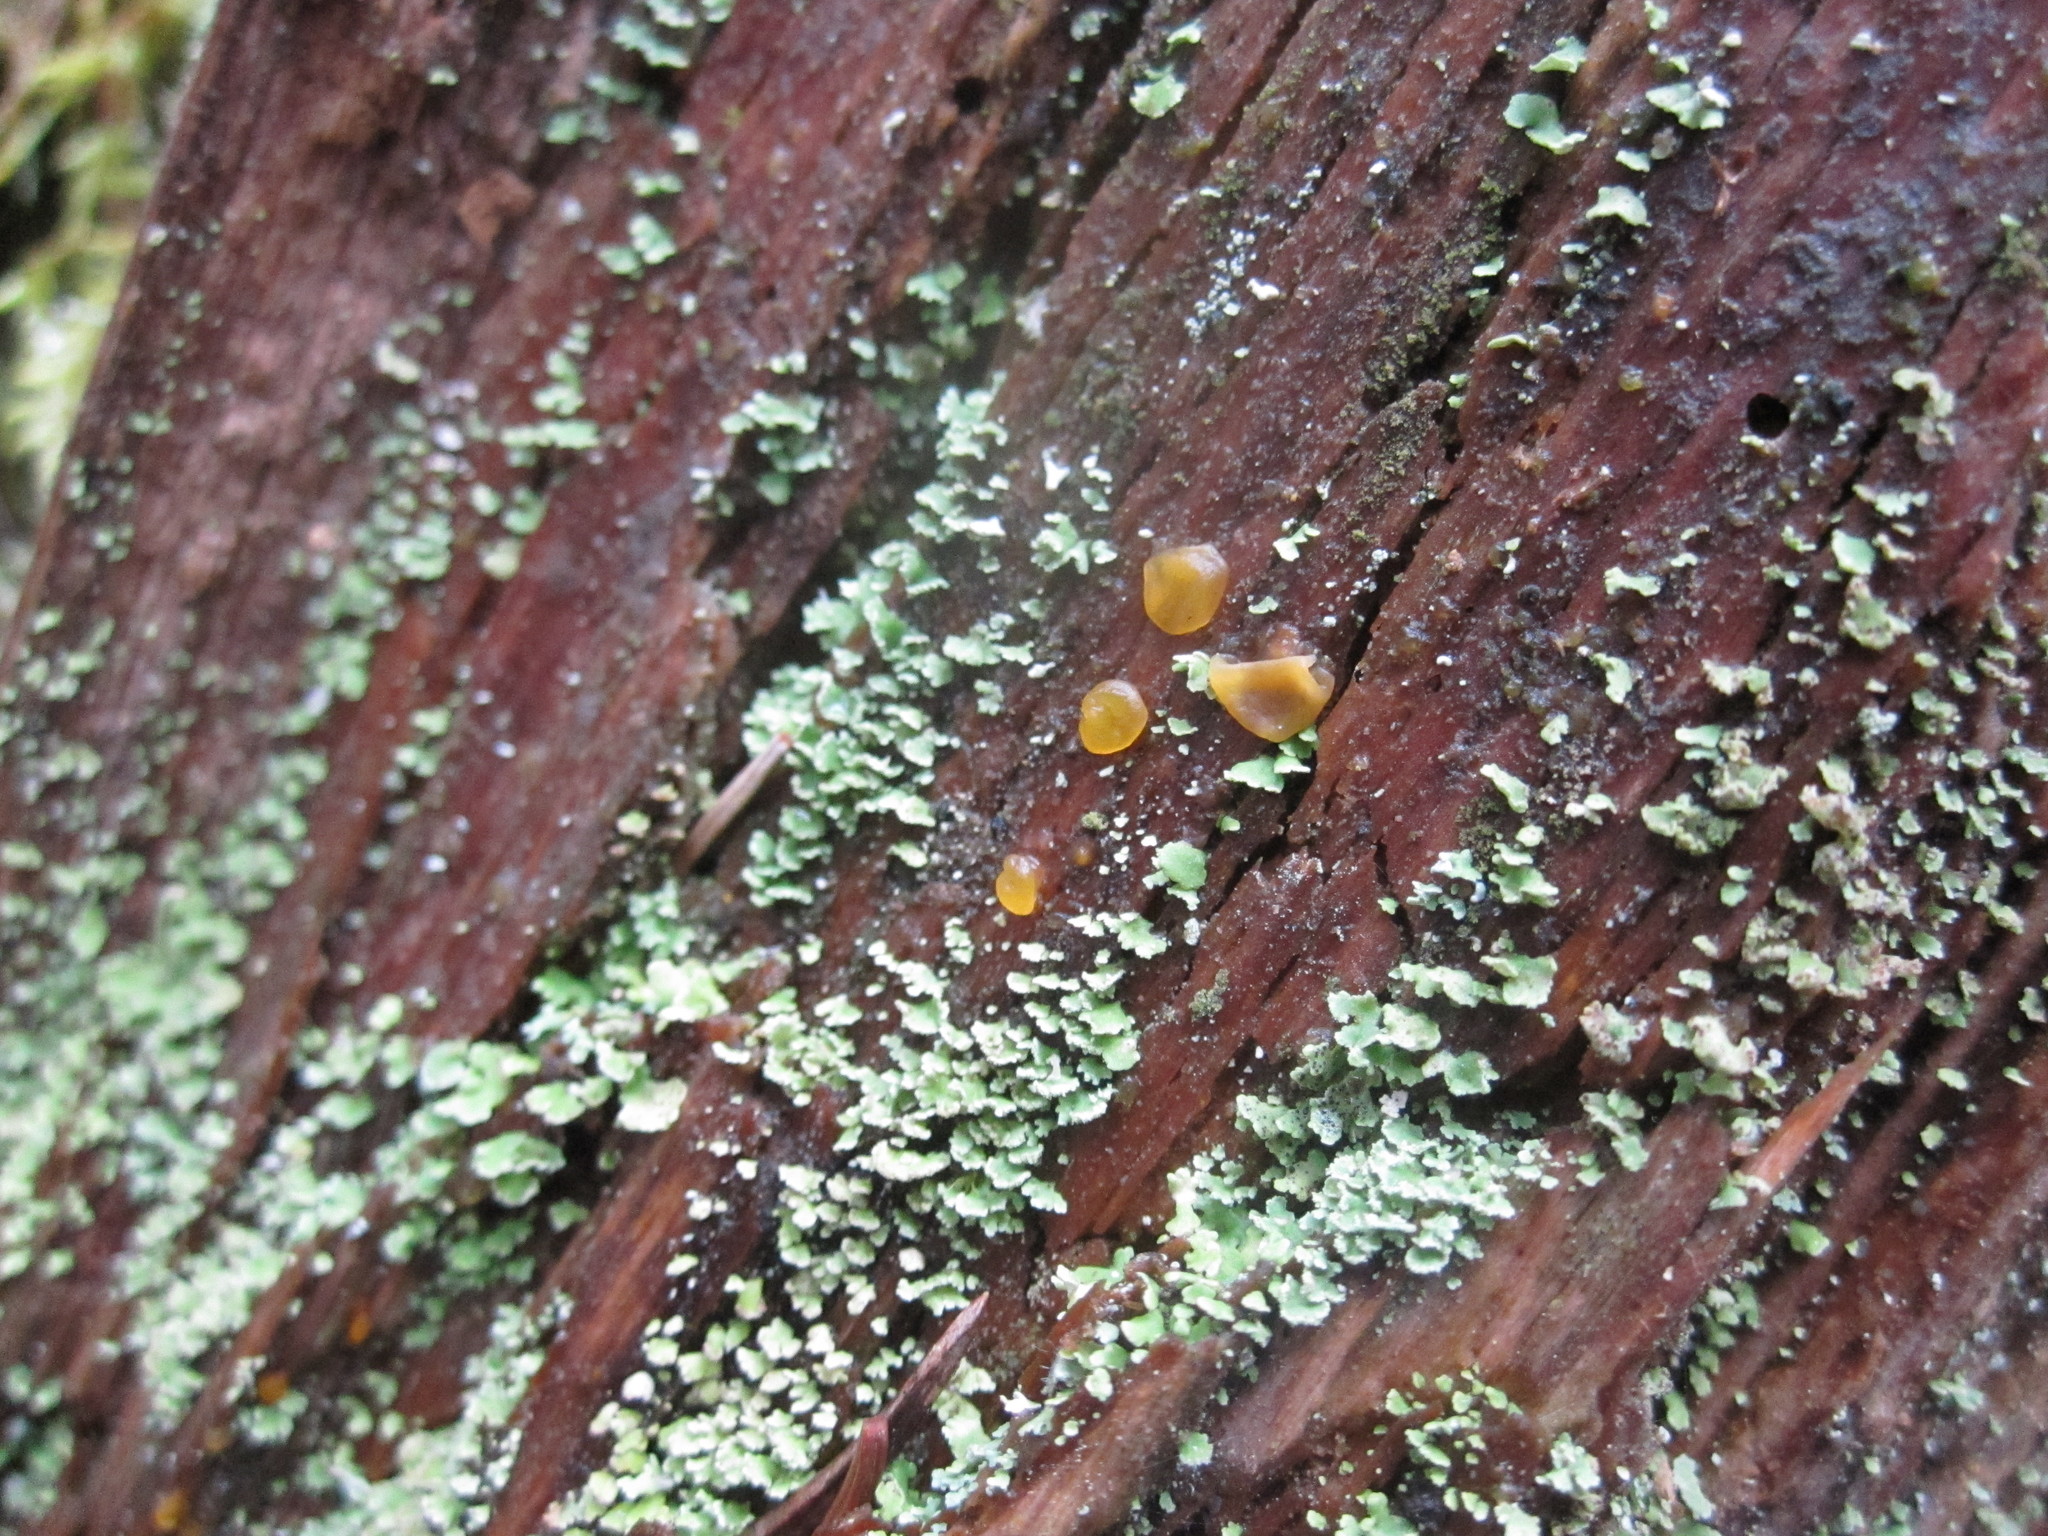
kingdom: Fungi
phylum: Basidiomycota
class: Dacrymycetes
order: Dacrymycetales
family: Dacrymycetaceae
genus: Dacrymyces
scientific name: Dacrymyces stillatus
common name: Common jelly spot
